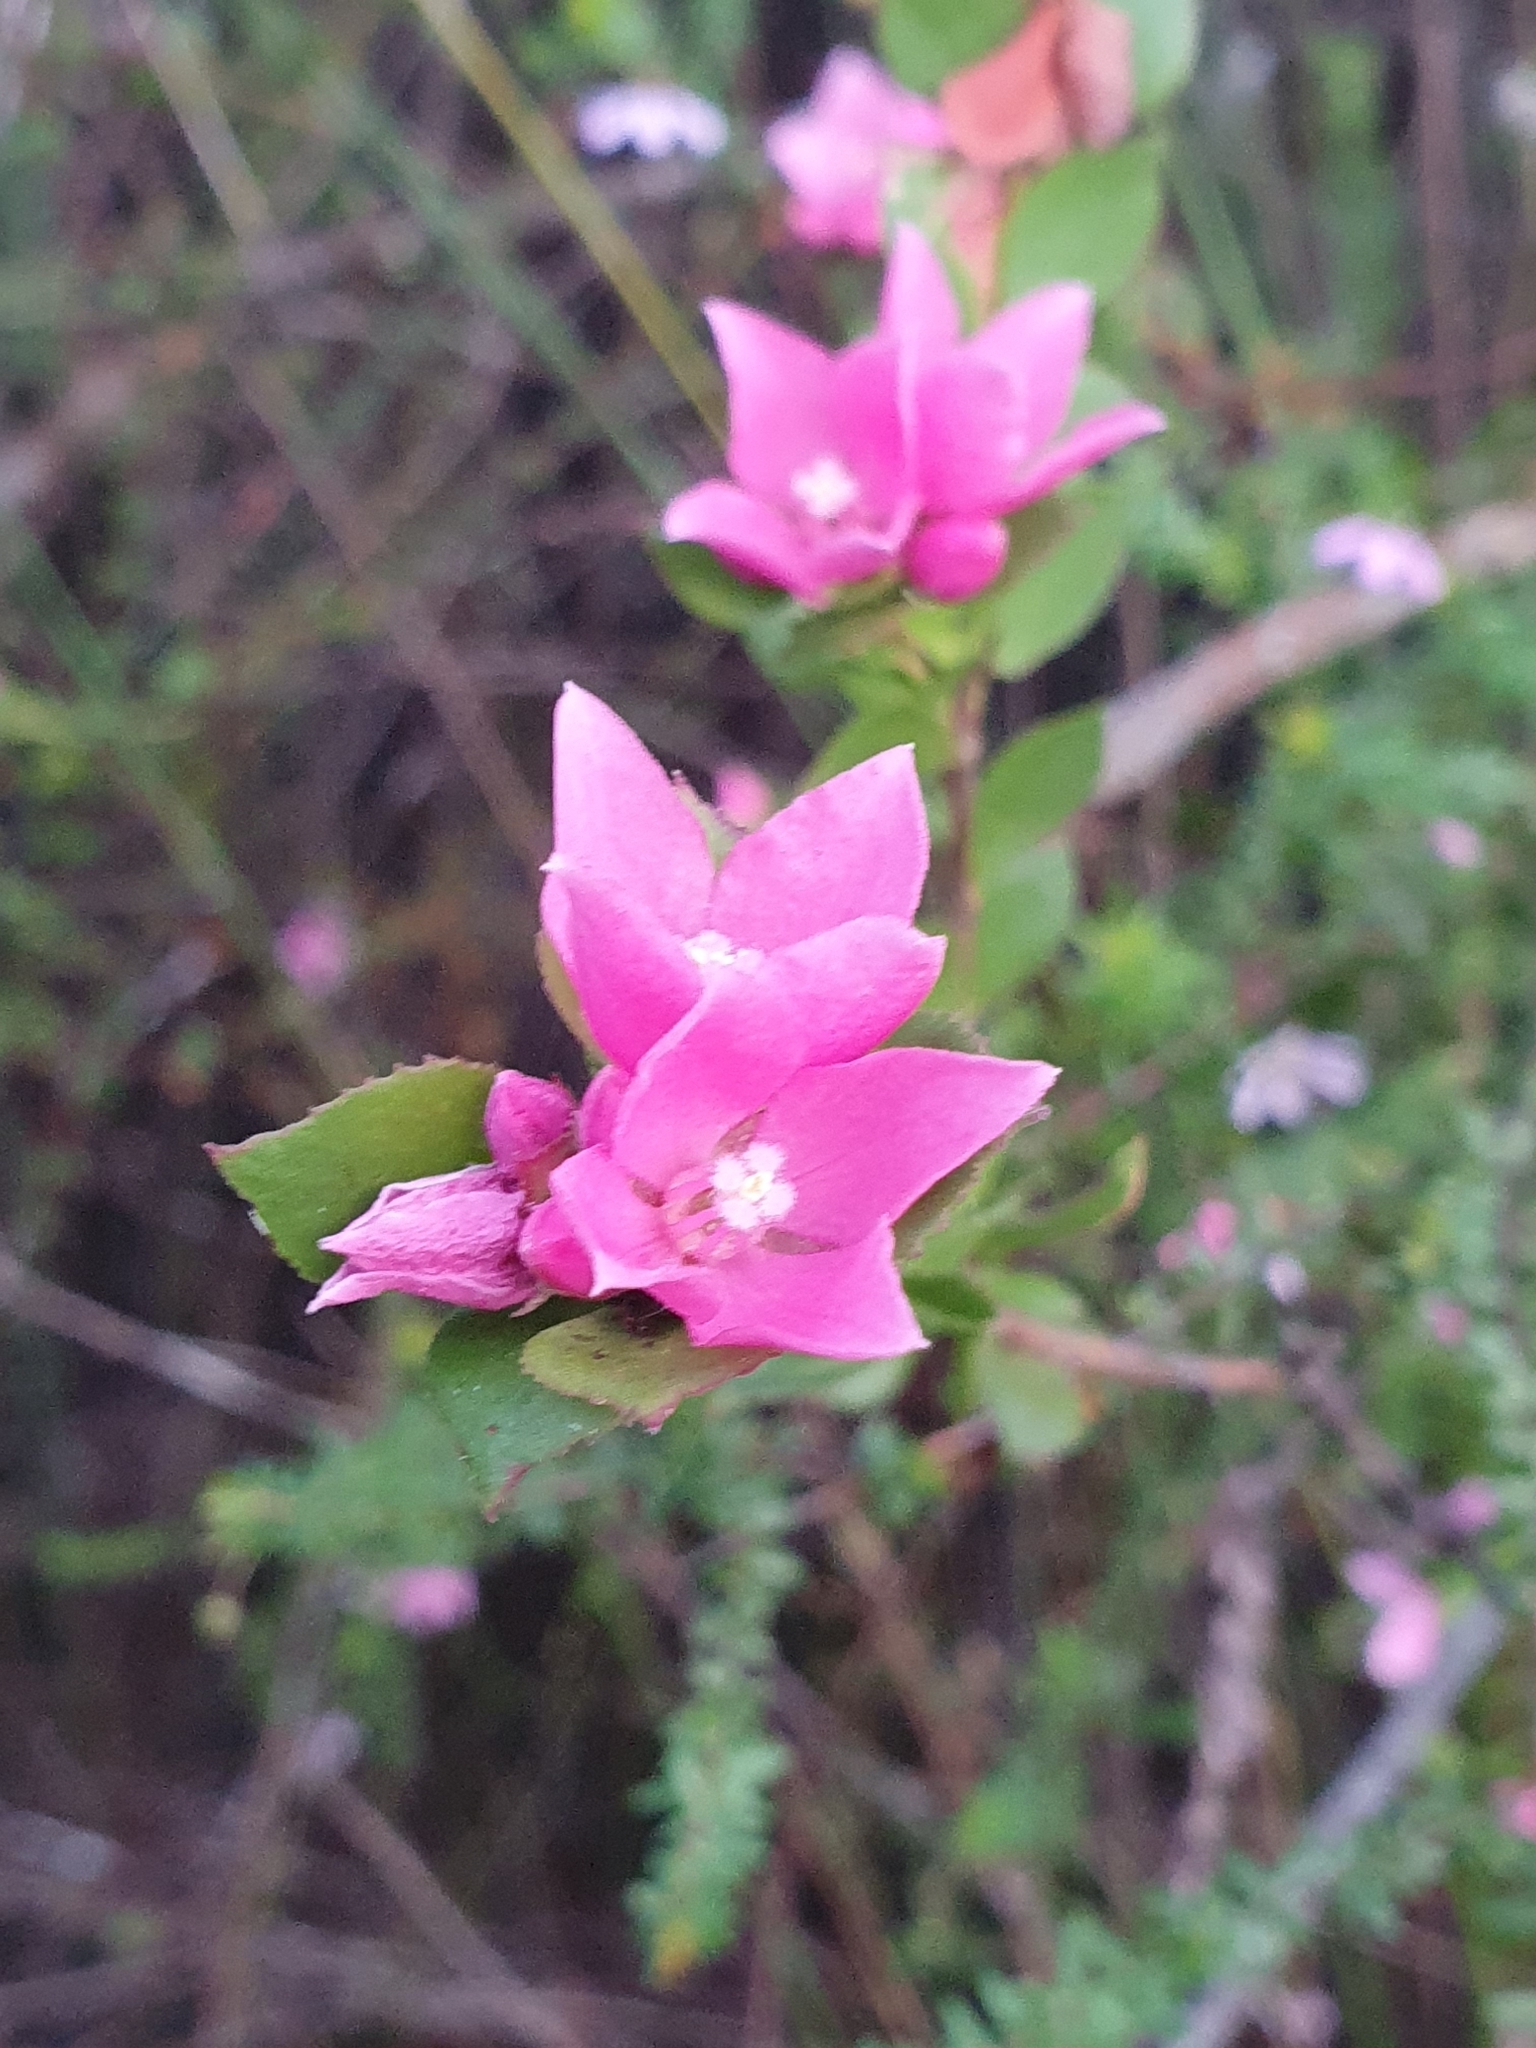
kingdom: Plantae
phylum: Tracheophyta
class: Magnoliopsida
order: Sapindales
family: Rutaceae
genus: Boronia
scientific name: Boronia serrulata
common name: Rose boronia
